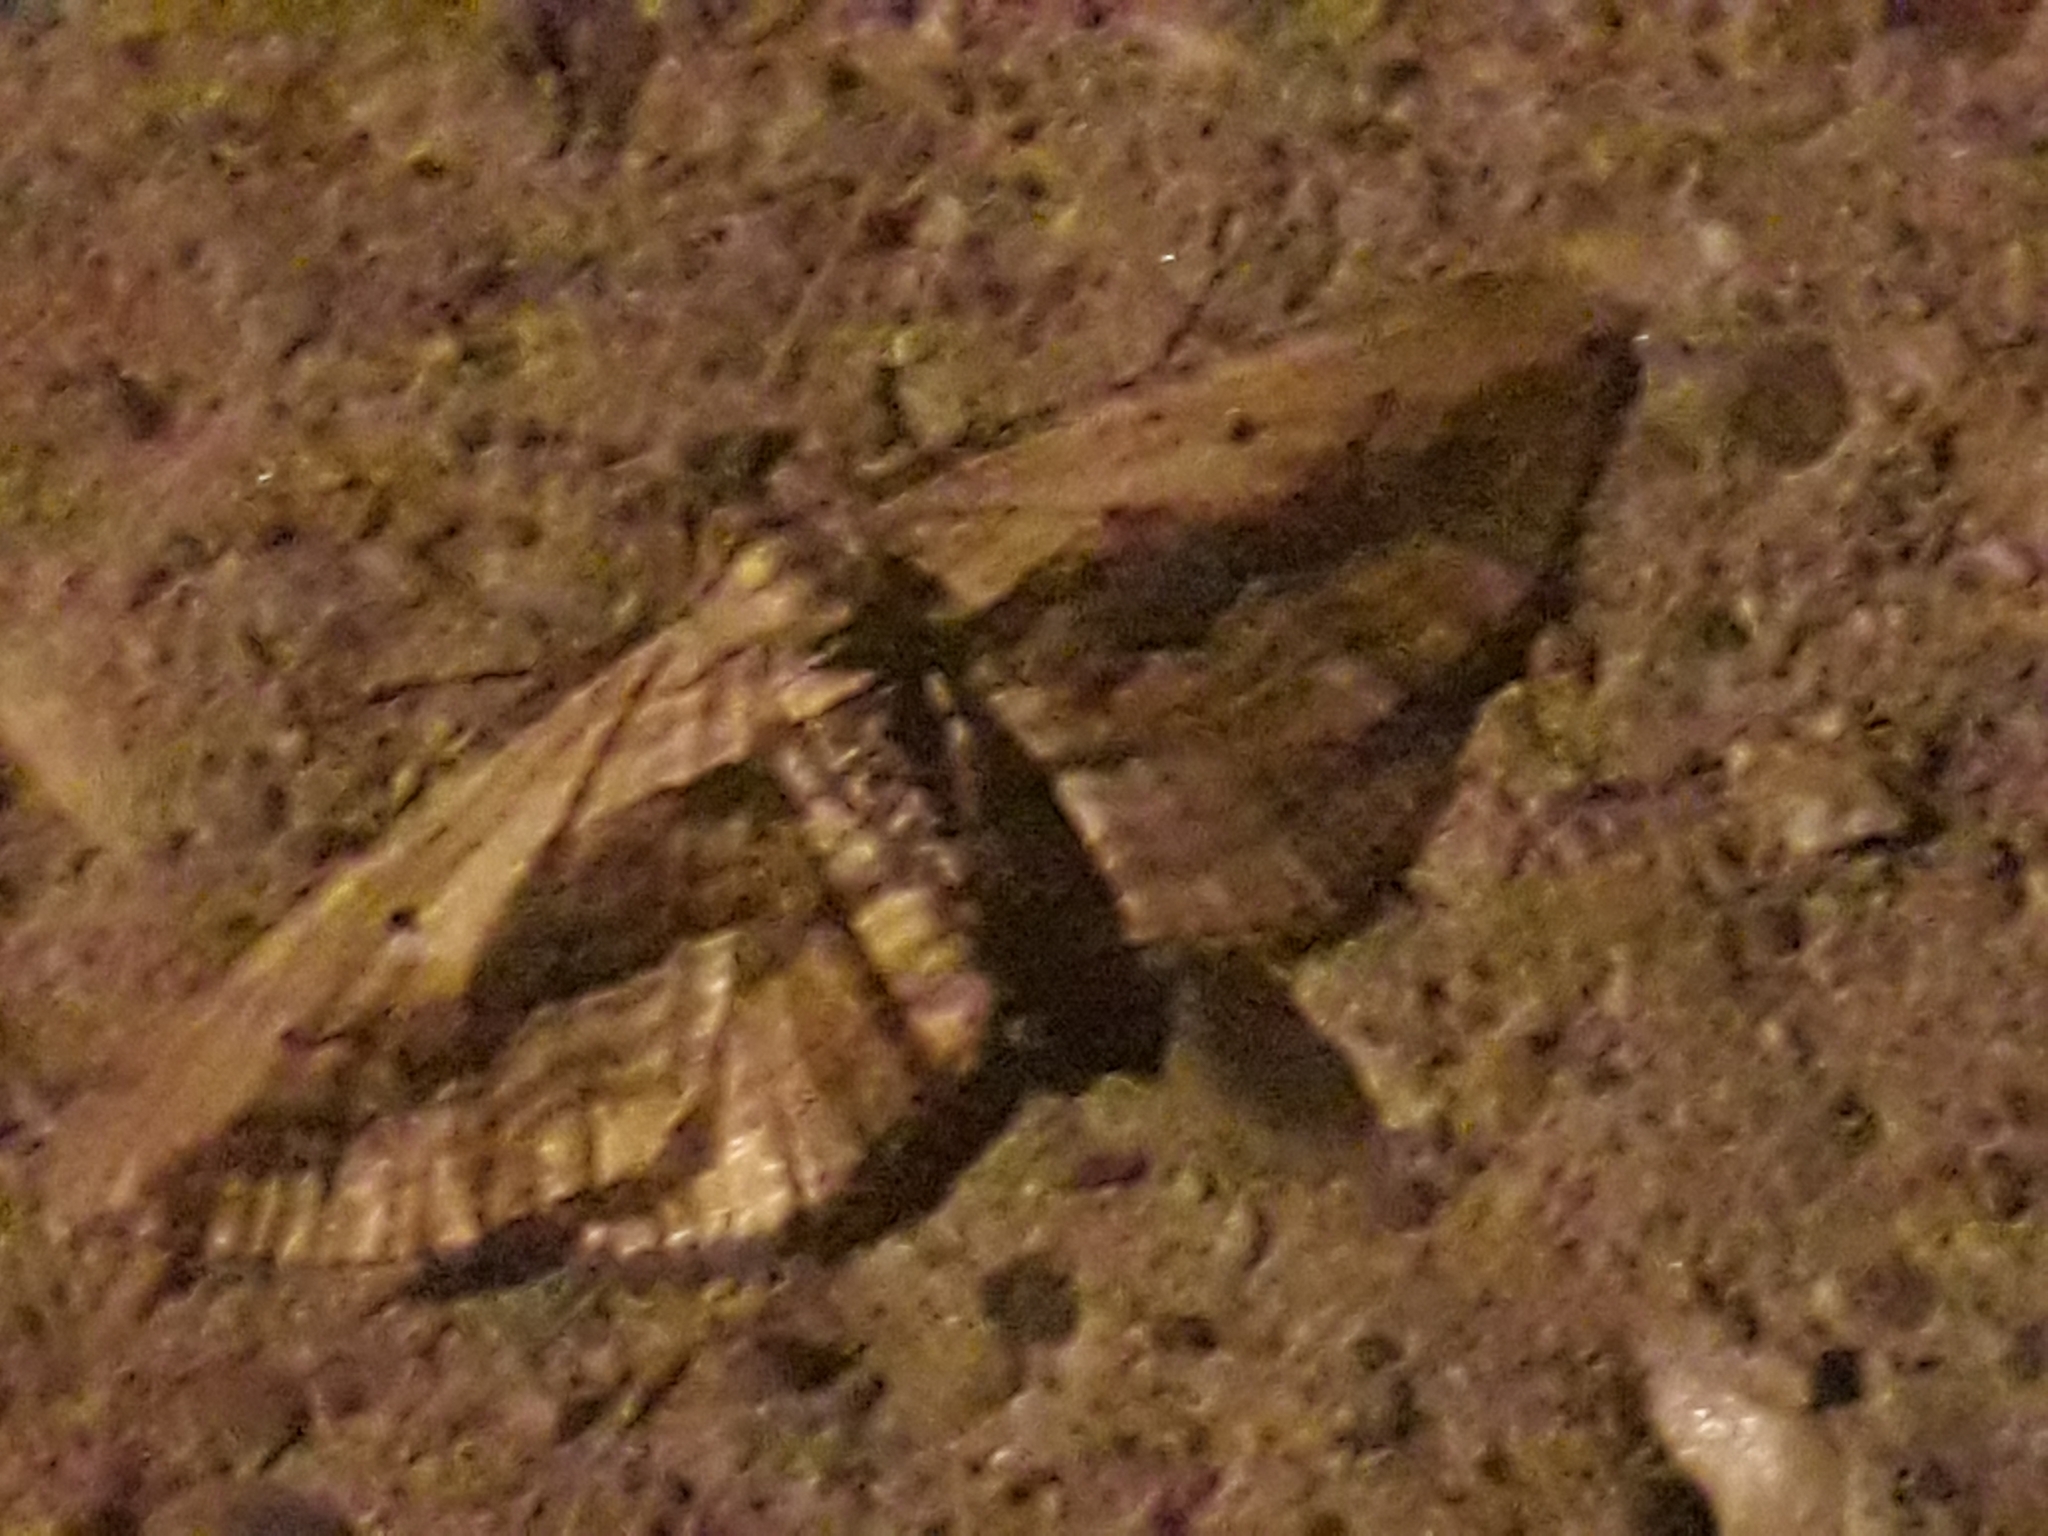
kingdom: Animalia
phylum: Arthropoda
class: Insecta
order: Lepidoptera
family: Geometridae
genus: Horisme
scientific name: Horisme vitalbata
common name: Small waved umber
